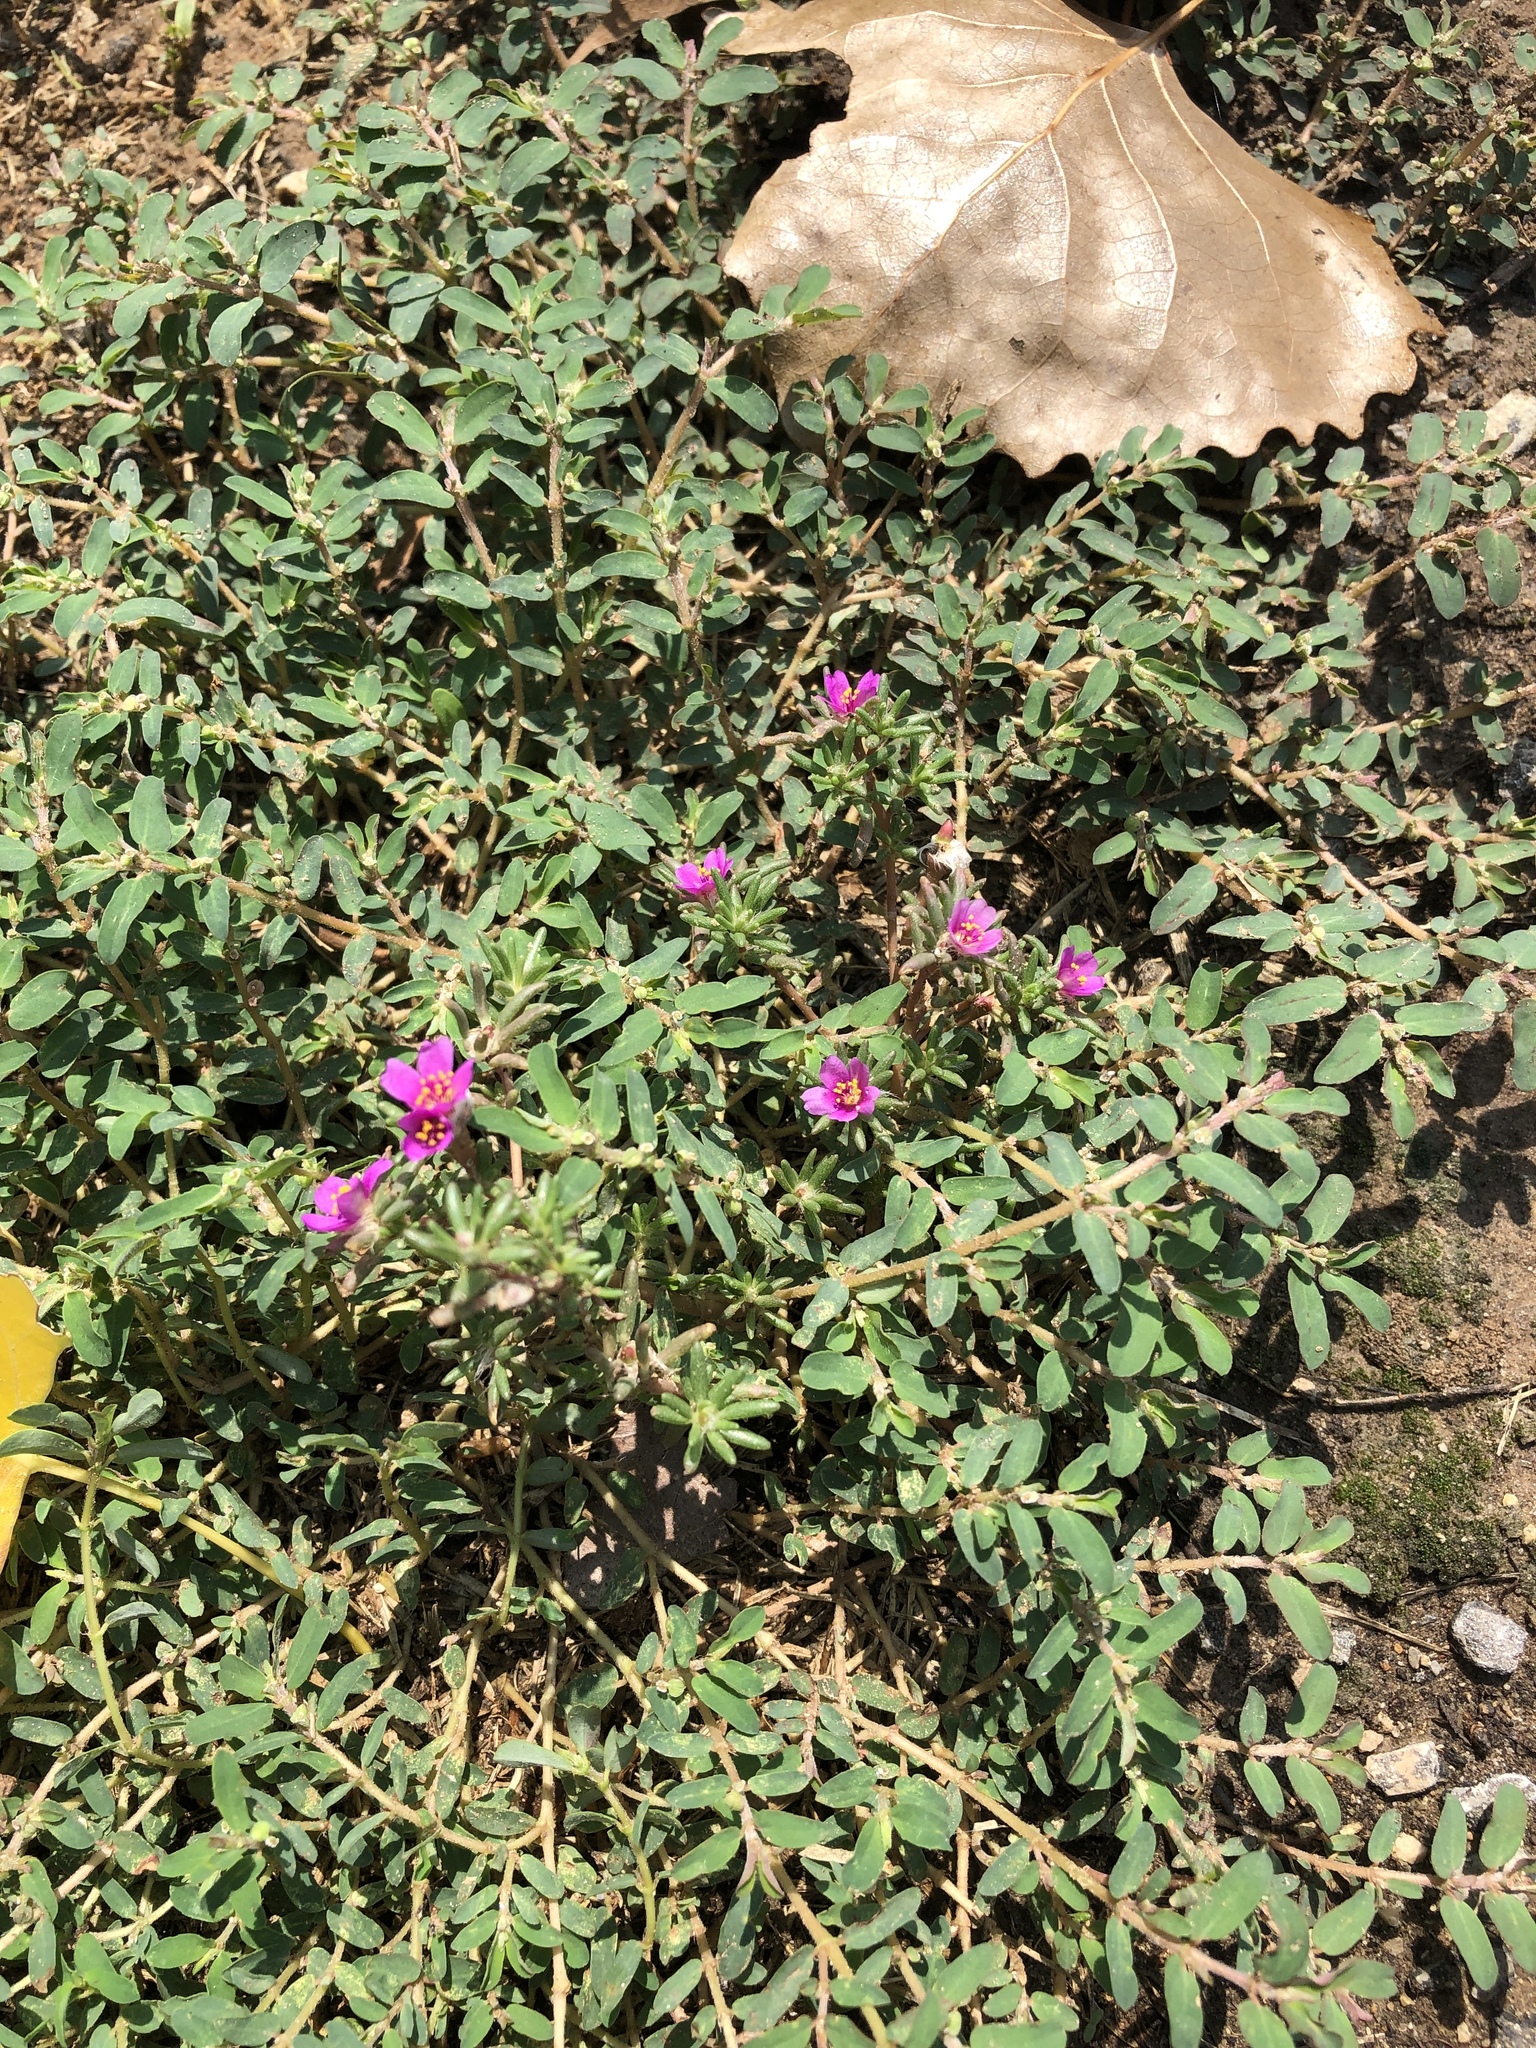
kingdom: Plantae
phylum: Tracheophyta
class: Magnoliopsida
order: Caryophyllales
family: Portulacaceae
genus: Portulaca
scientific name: Portulaca pilosa
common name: Kiss me quick
